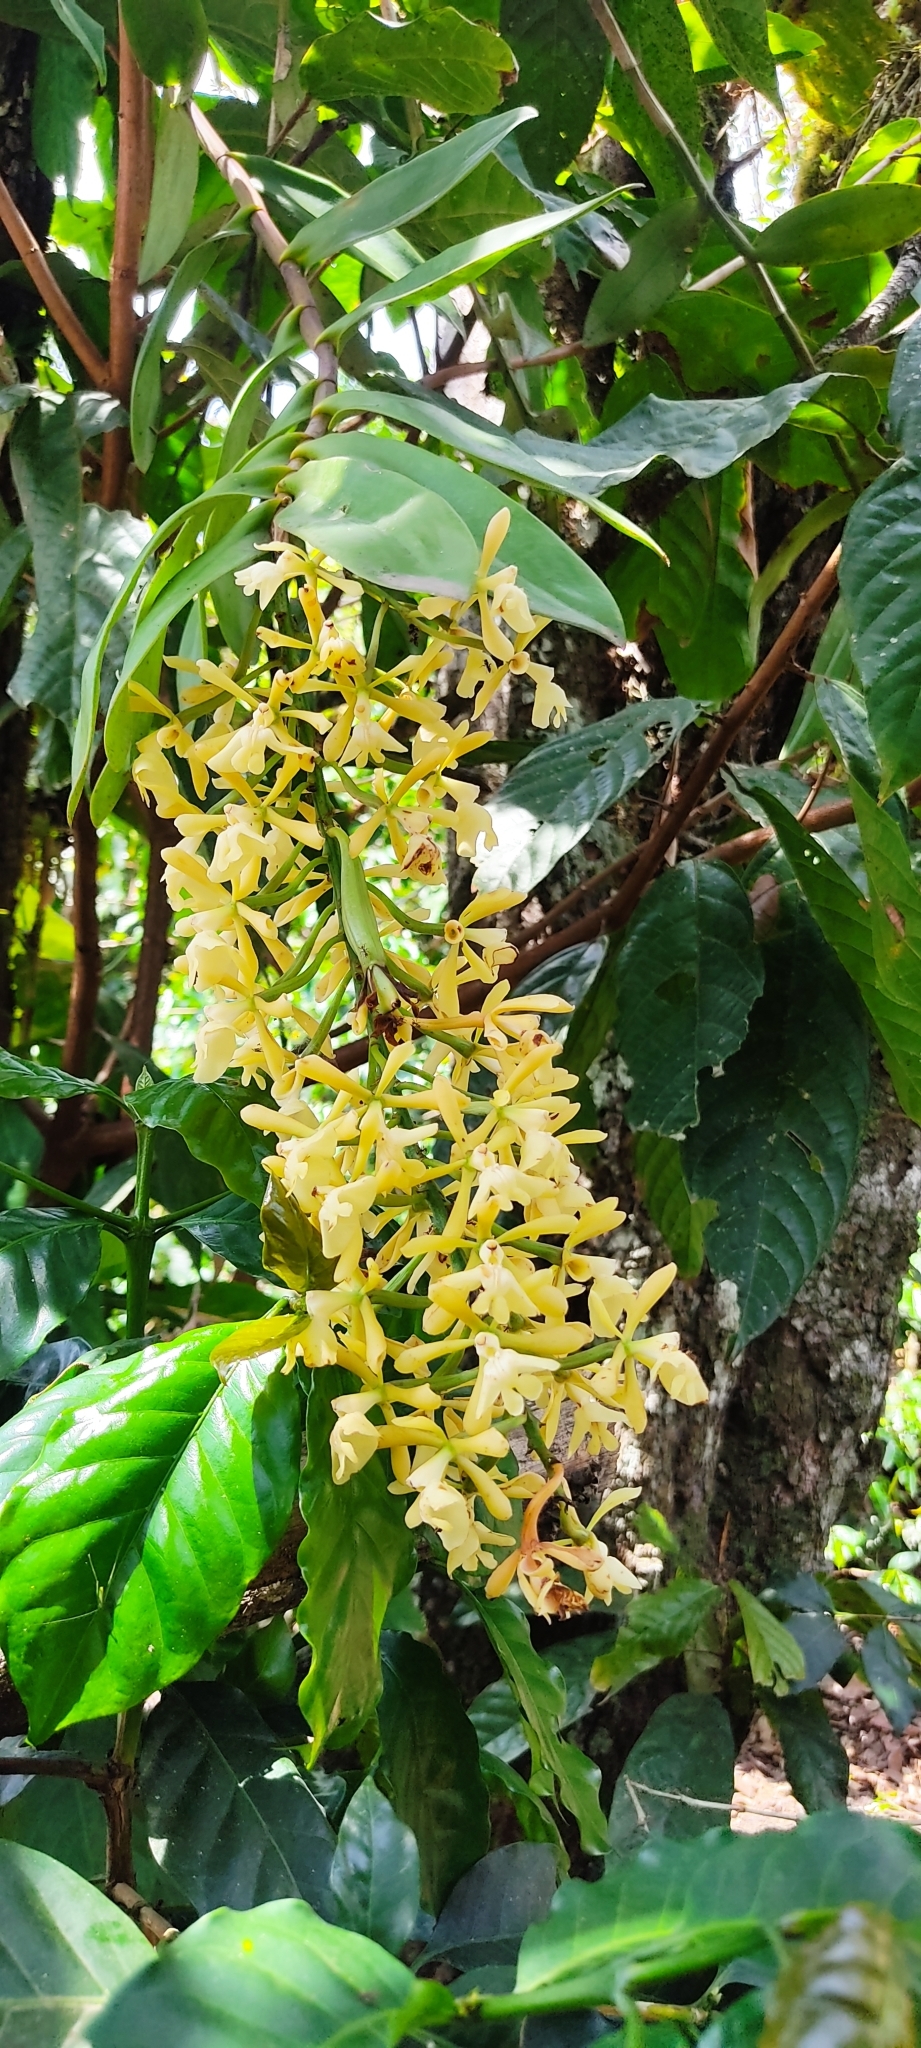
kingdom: Plantae
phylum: Tracheophyta
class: Liliopsida
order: Asparagales
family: Orchidaceae
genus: Epidendrum
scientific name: Epidendrum coronatum
